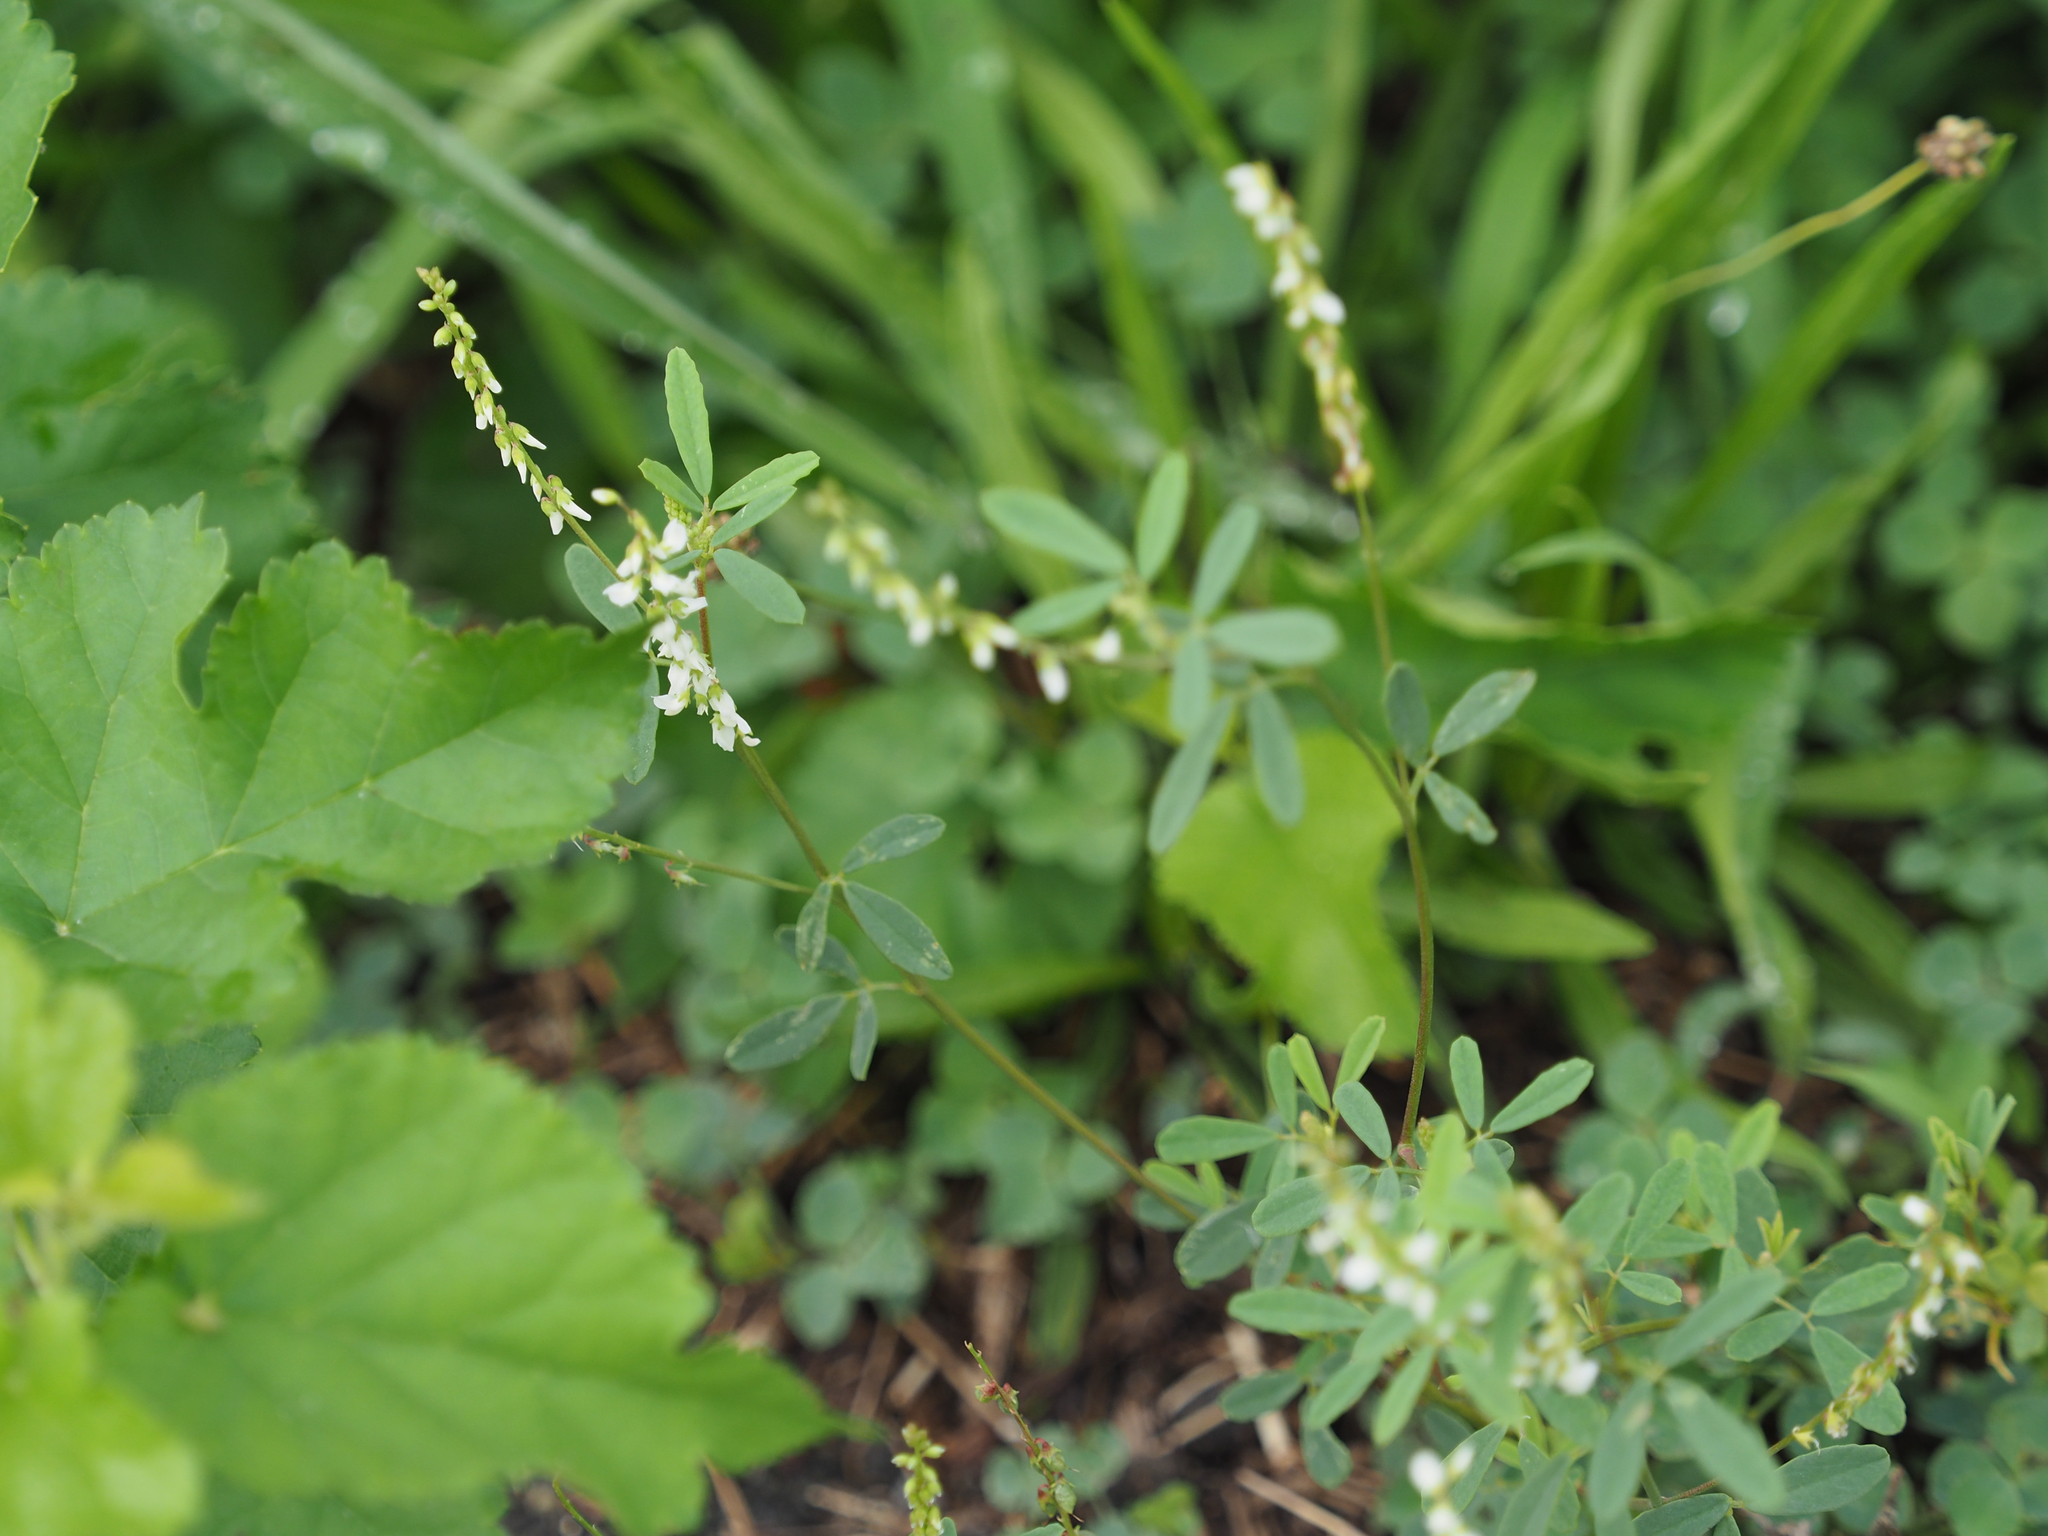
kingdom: Plantae
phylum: Tracheophyta
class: Magnoliopsida
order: Fabales
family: Fabaceae
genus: Melilotus
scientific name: Melilotus albus
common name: White melilot
